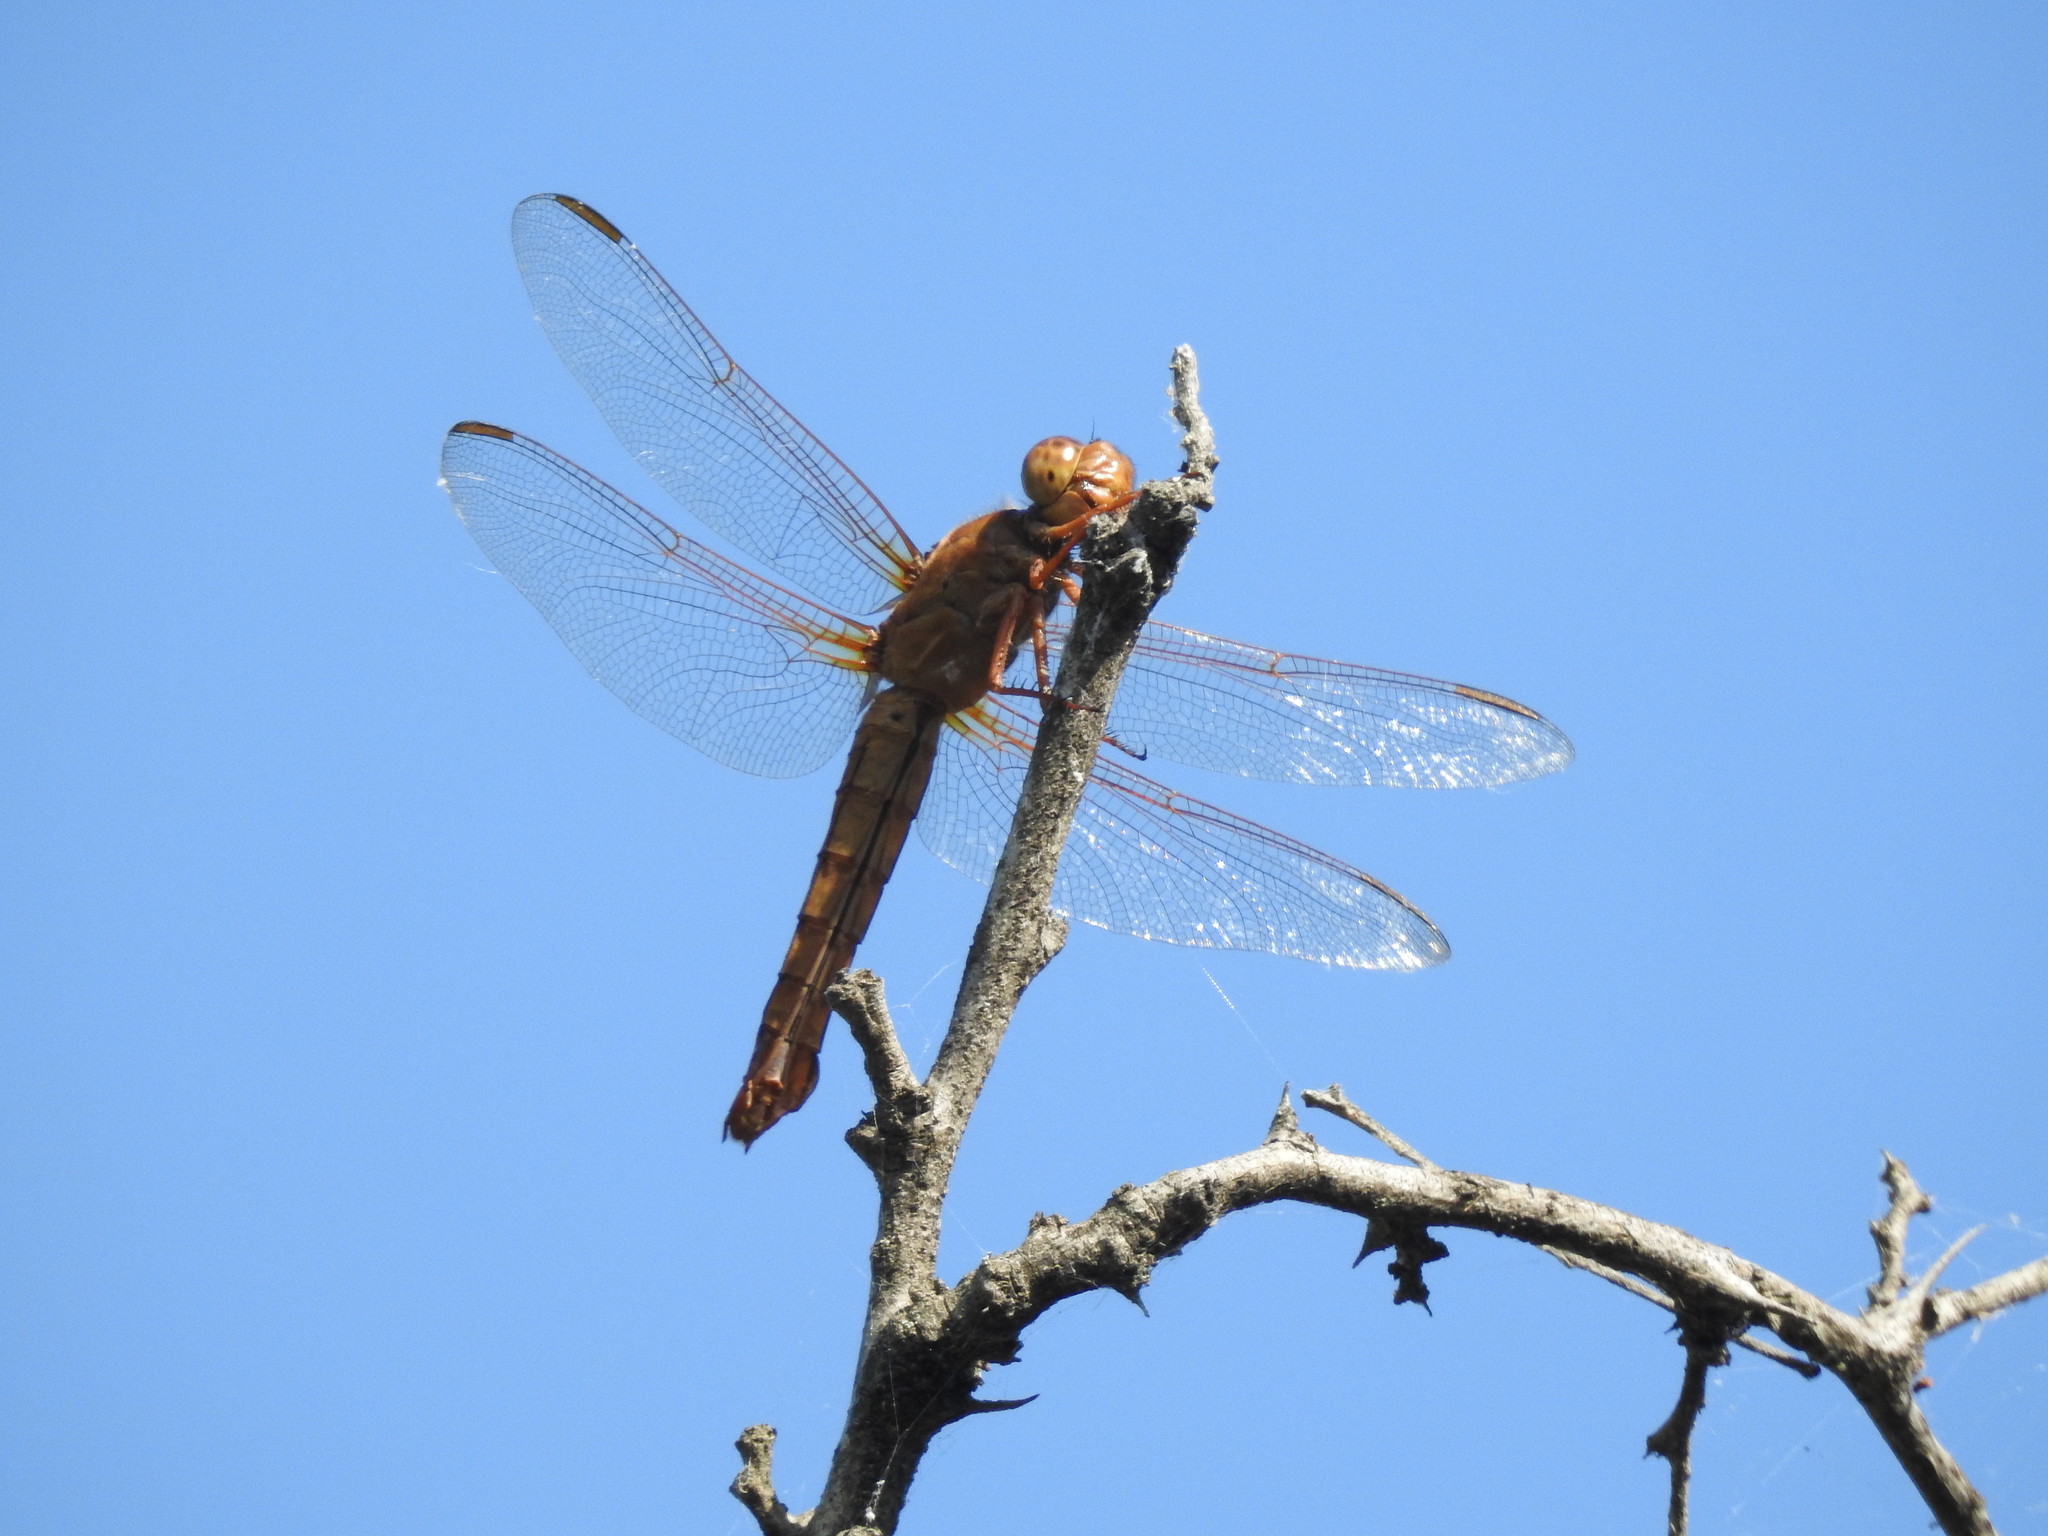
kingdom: Animalia
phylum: Arthropoda
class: Insecta
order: Odonata
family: Libellulidae
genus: Libellula
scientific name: Libellula croceipennis
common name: Neon skimmer
